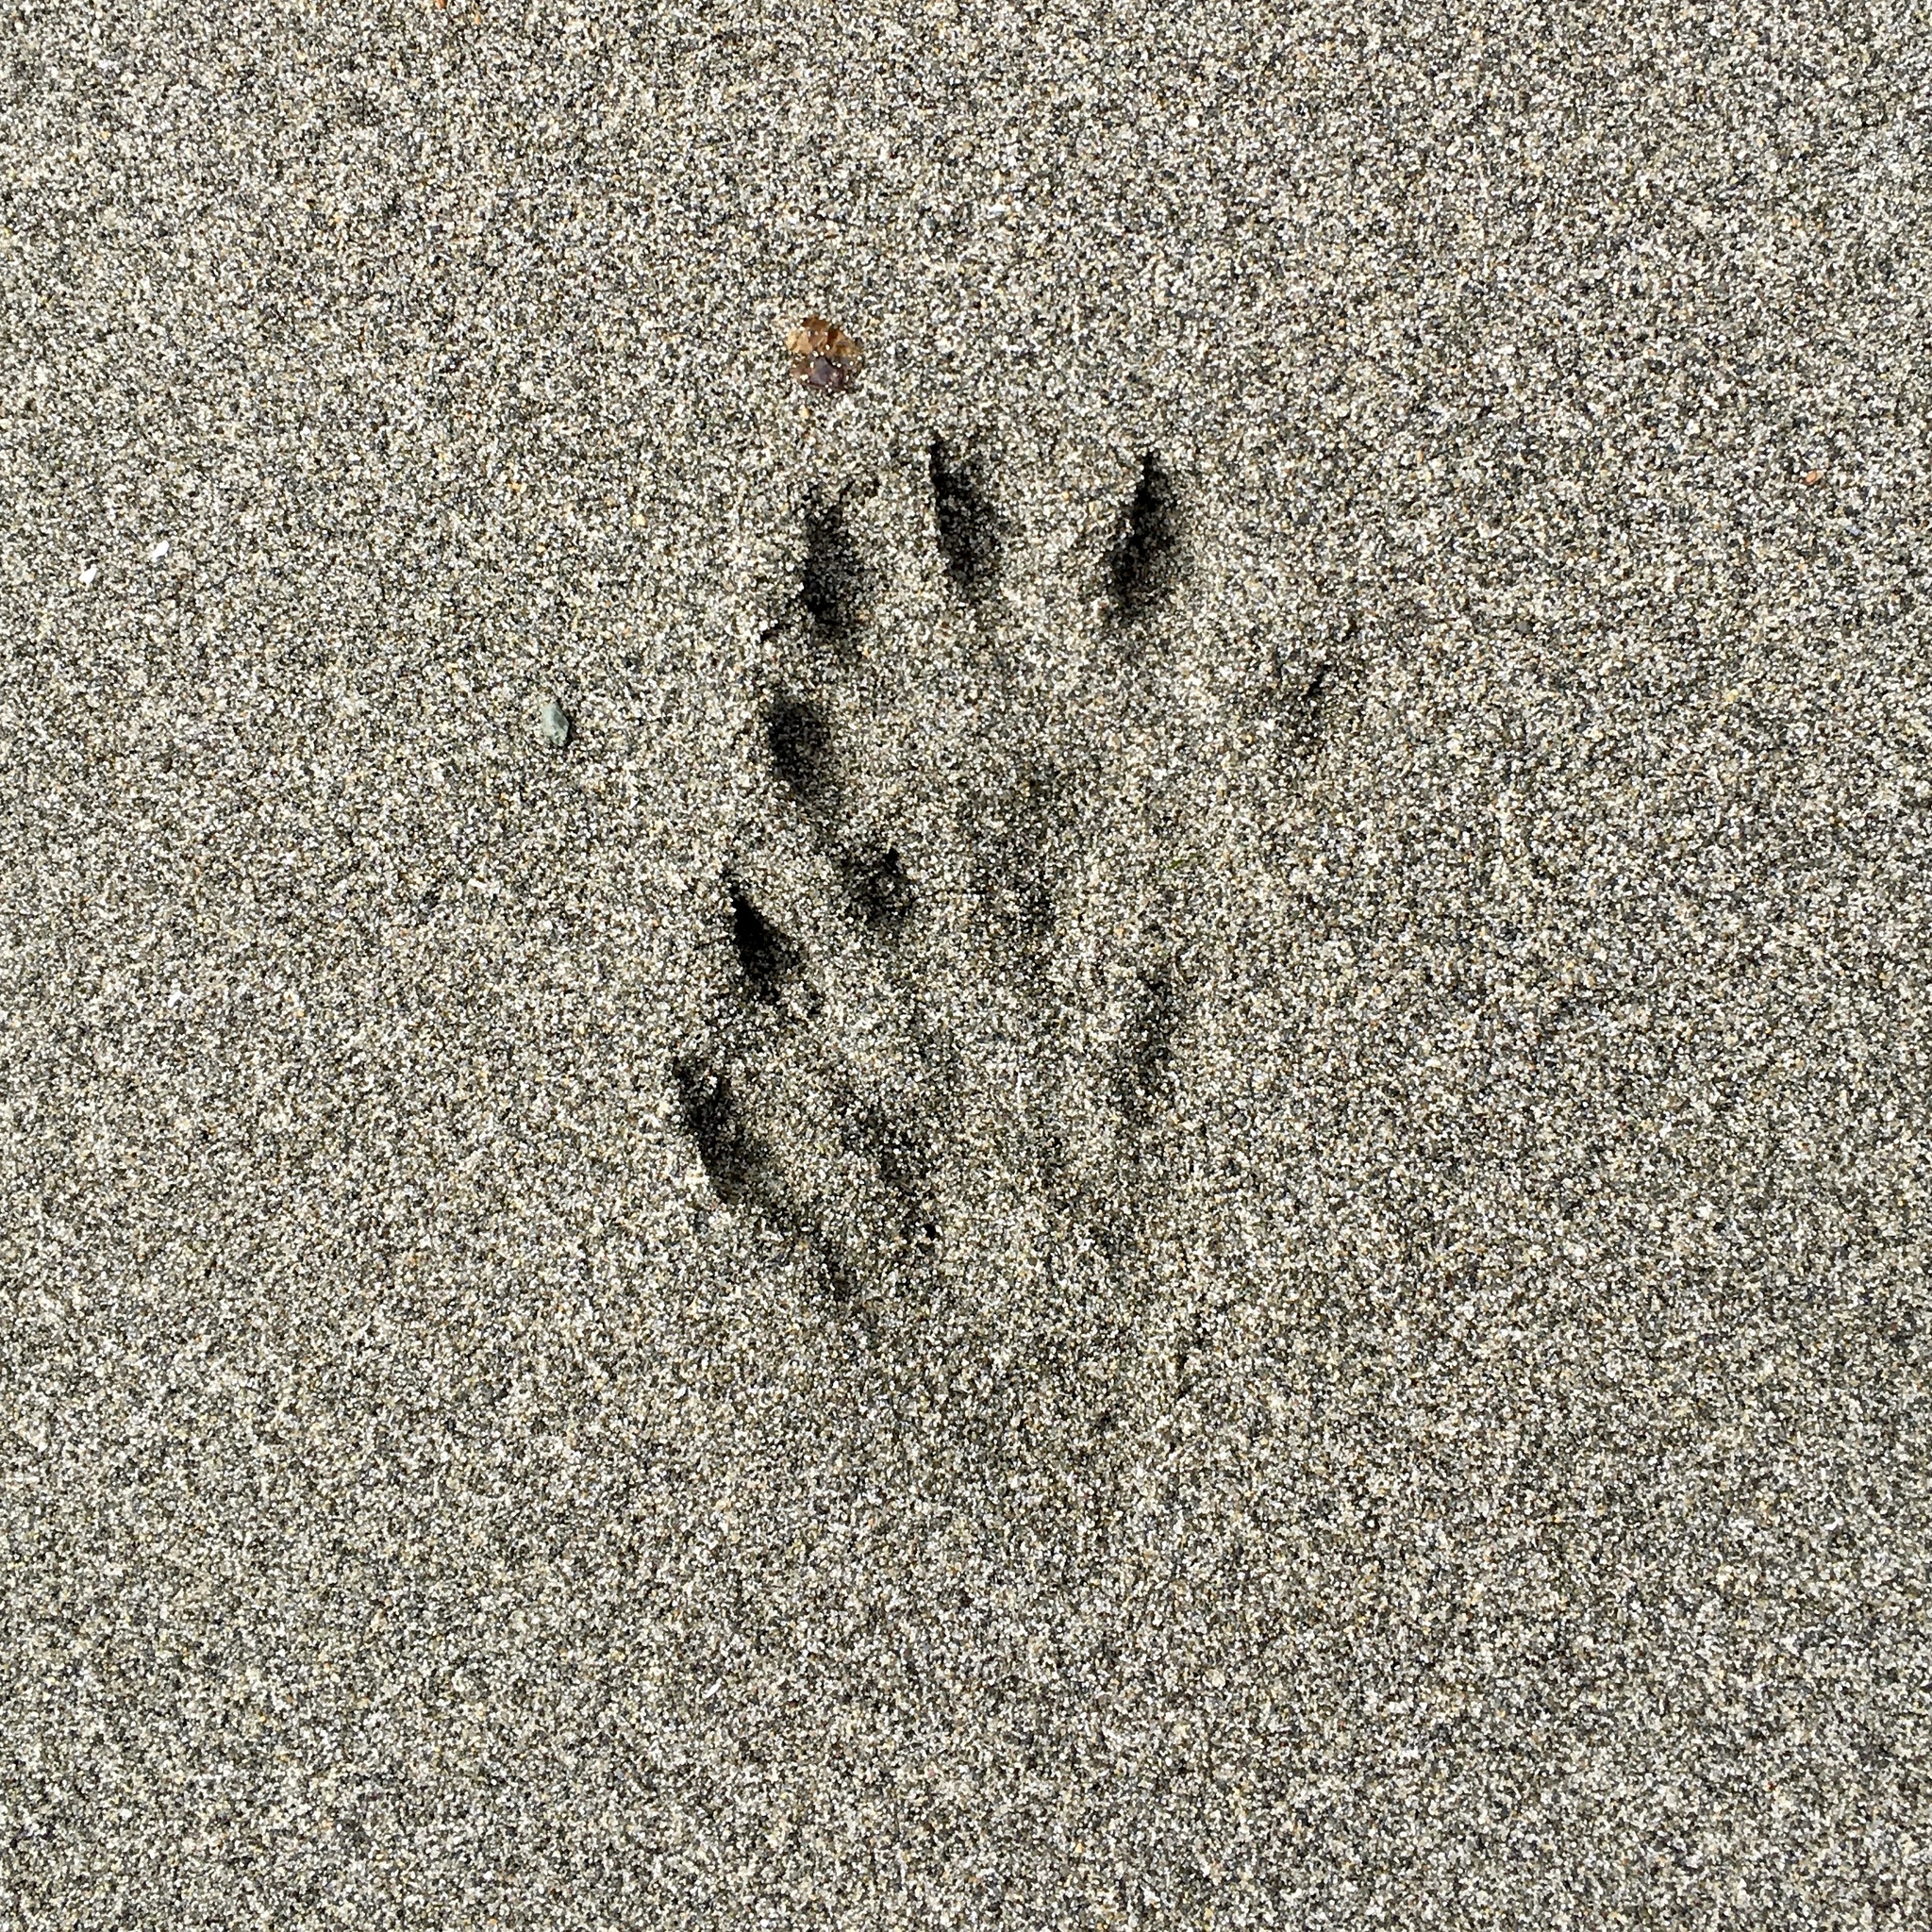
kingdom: Animalia
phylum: Chordata
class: Mammalia
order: Carnivora
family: Mustelidae
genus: Lontra
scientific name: Lontra canadensis
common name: North american river otter
